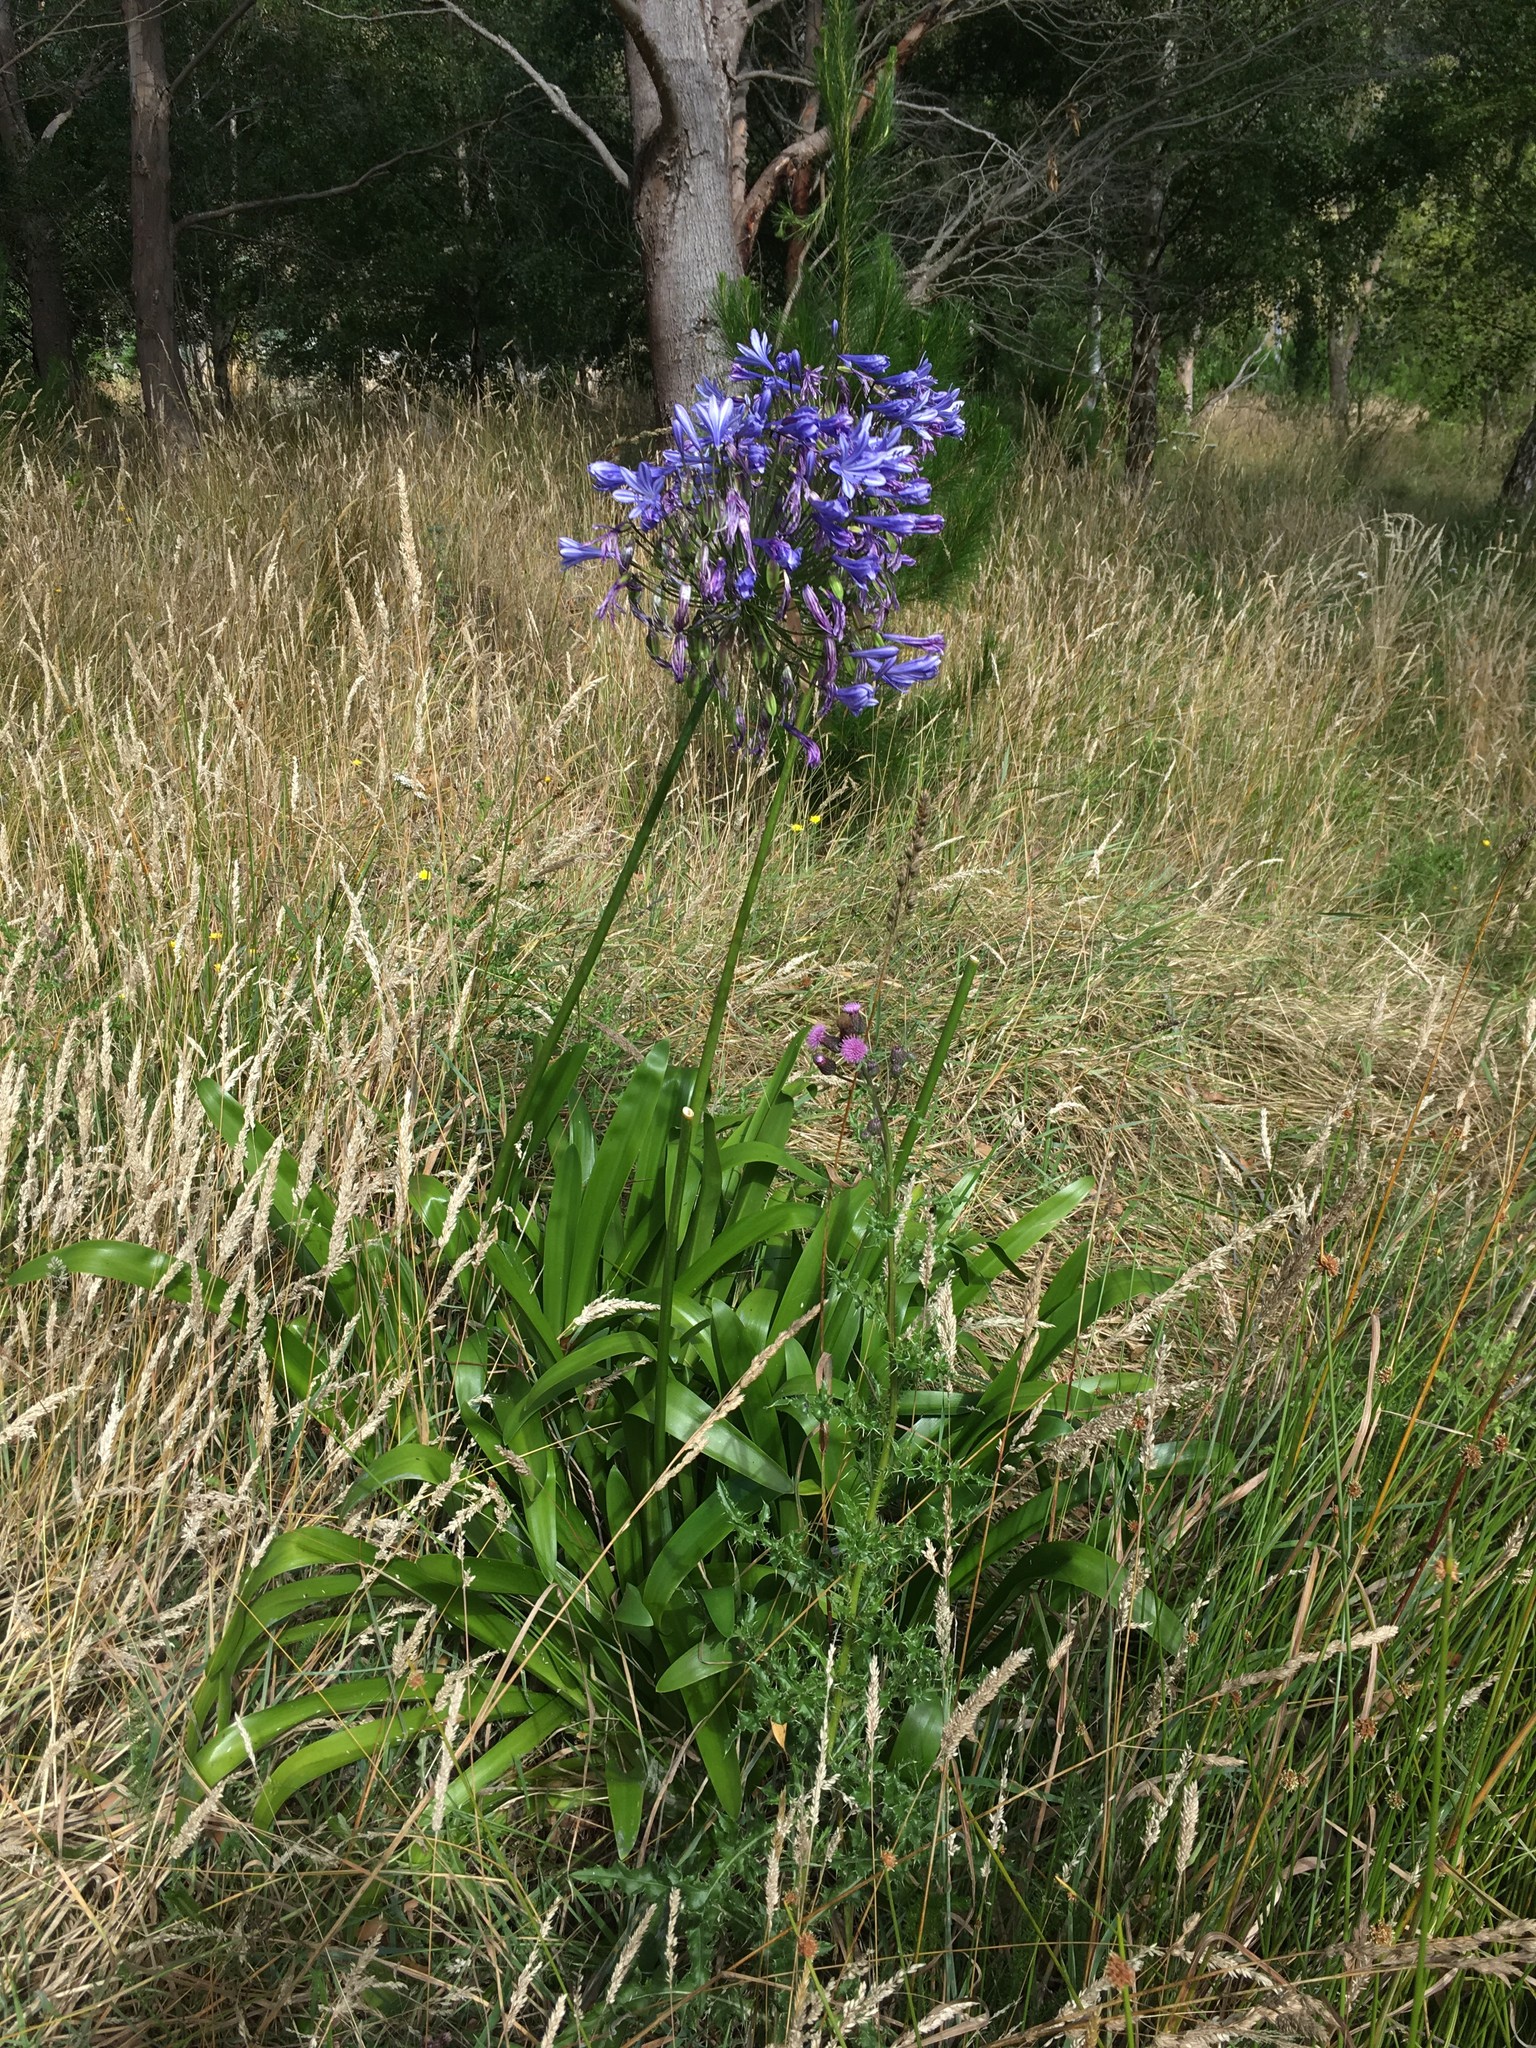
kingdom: Plantae
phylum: Tracheophyta
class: Liliopsida
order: Asparagales
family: Amaryllidaceae
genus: Agapanthus
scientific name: Agapanthus praecox
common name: African-lily
